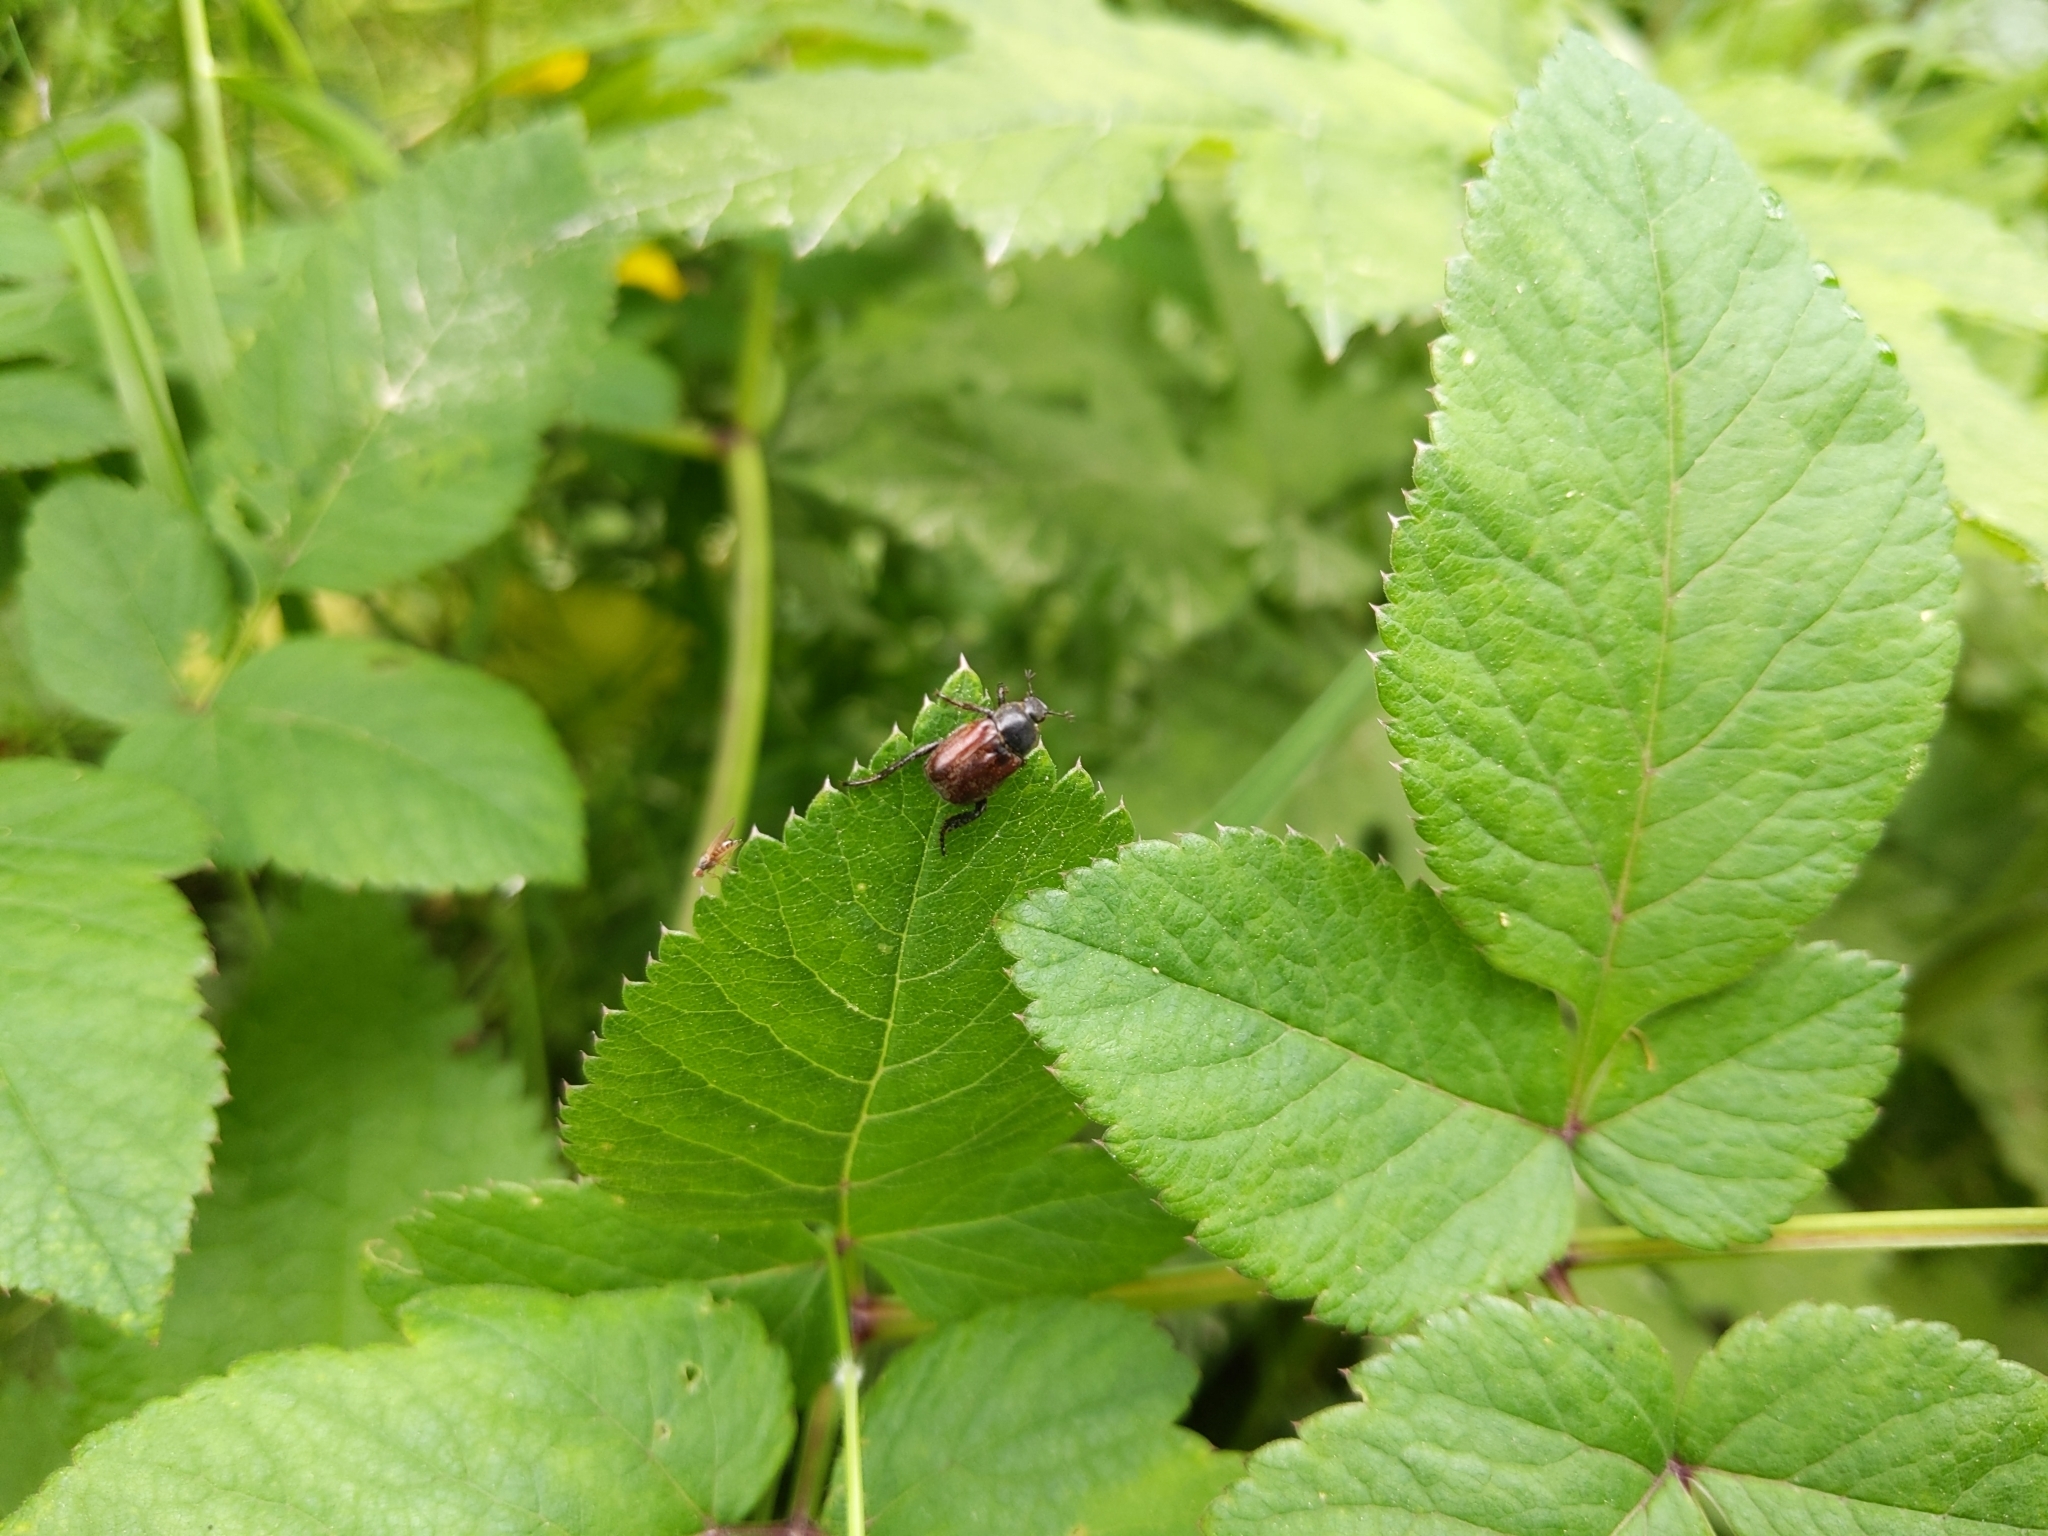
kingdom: Animalia
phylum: Arthropoda
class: Insecta
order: Coleoptera
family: Scarabaeidae
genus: Hoplia
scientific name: Hoplia philanthus
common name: Welsh chafer
